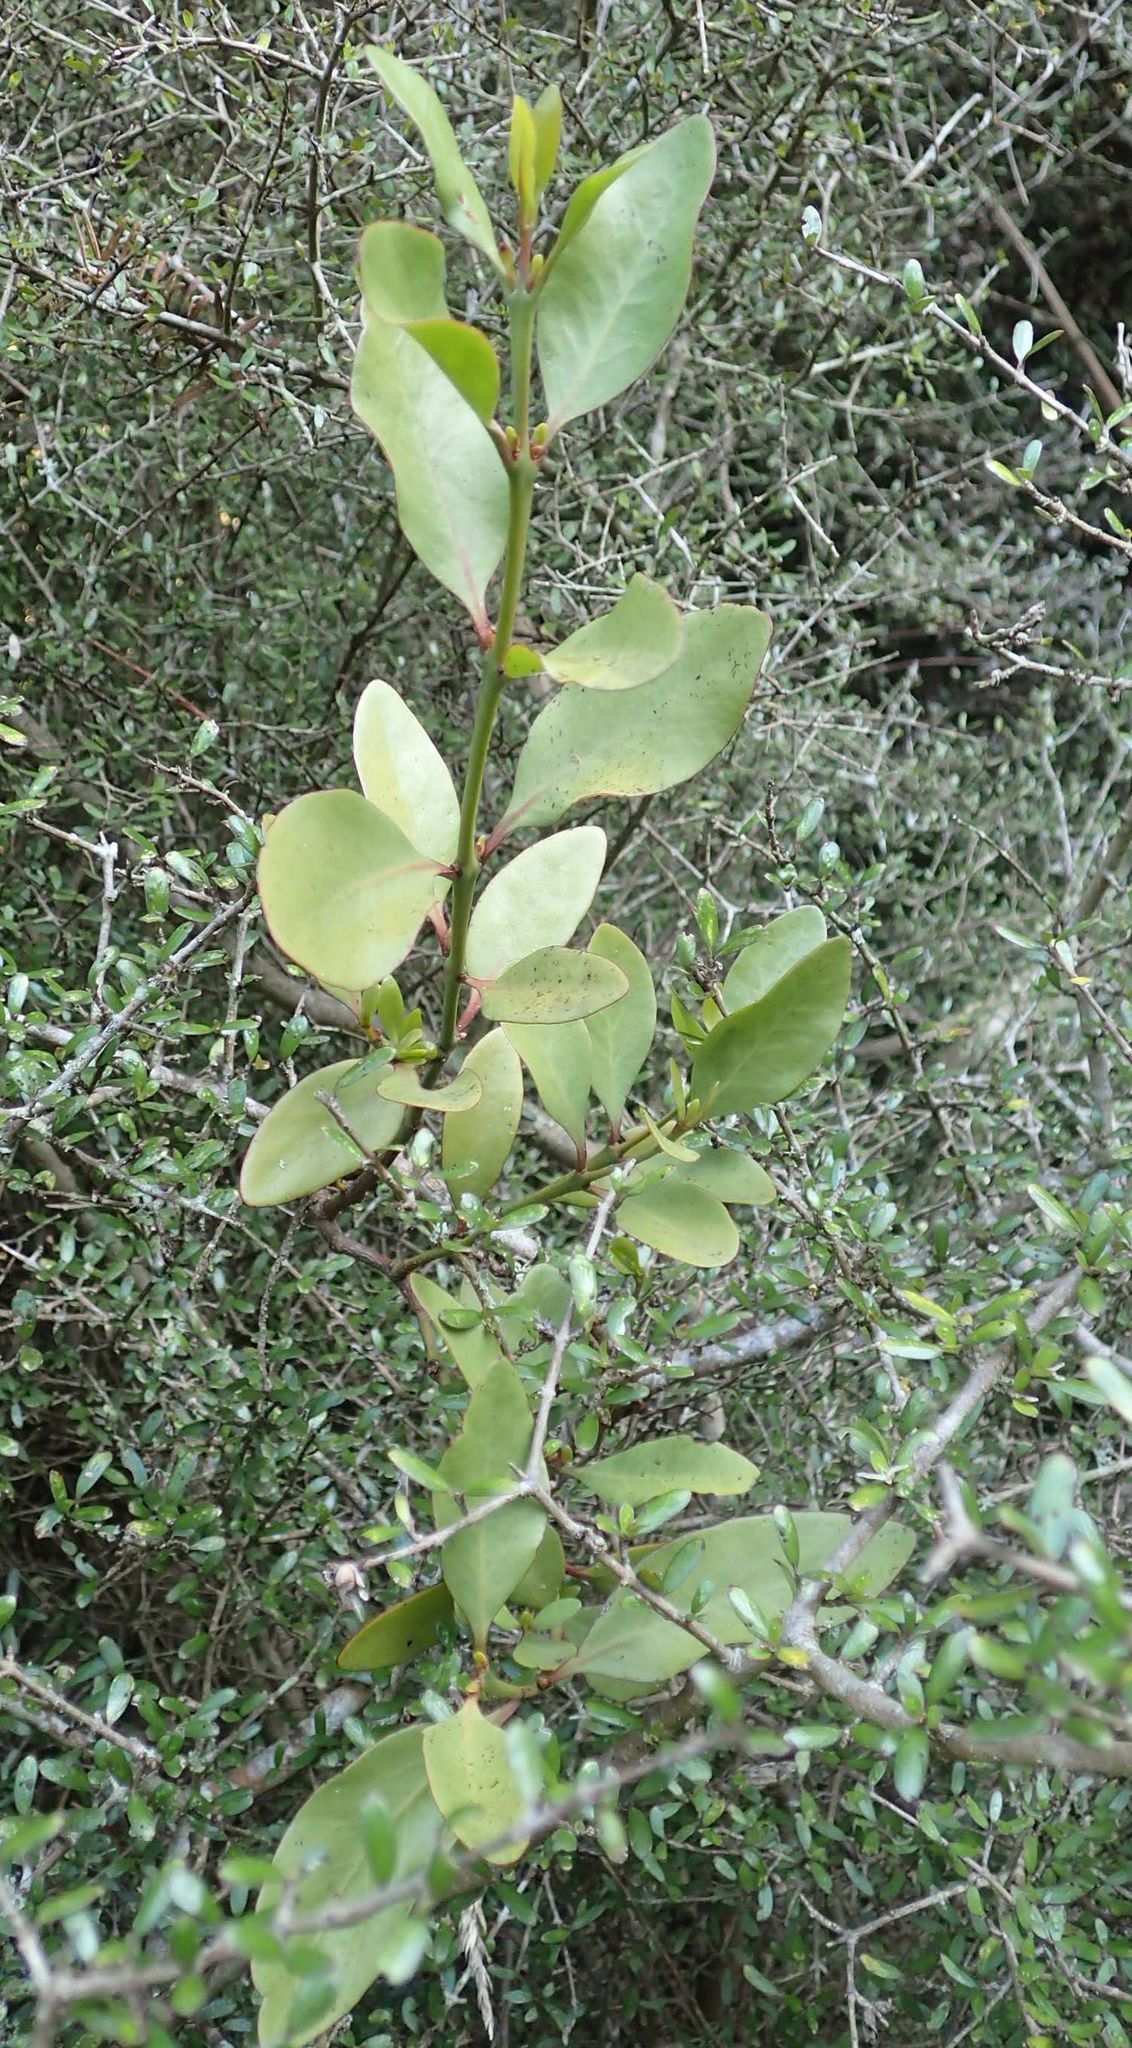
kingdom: Plantae
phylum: Tracheophyta
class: Magnoliopsida
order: Santalales
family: Loranthaceae
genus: Ileostylus
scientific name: Ileostylus micranthus
